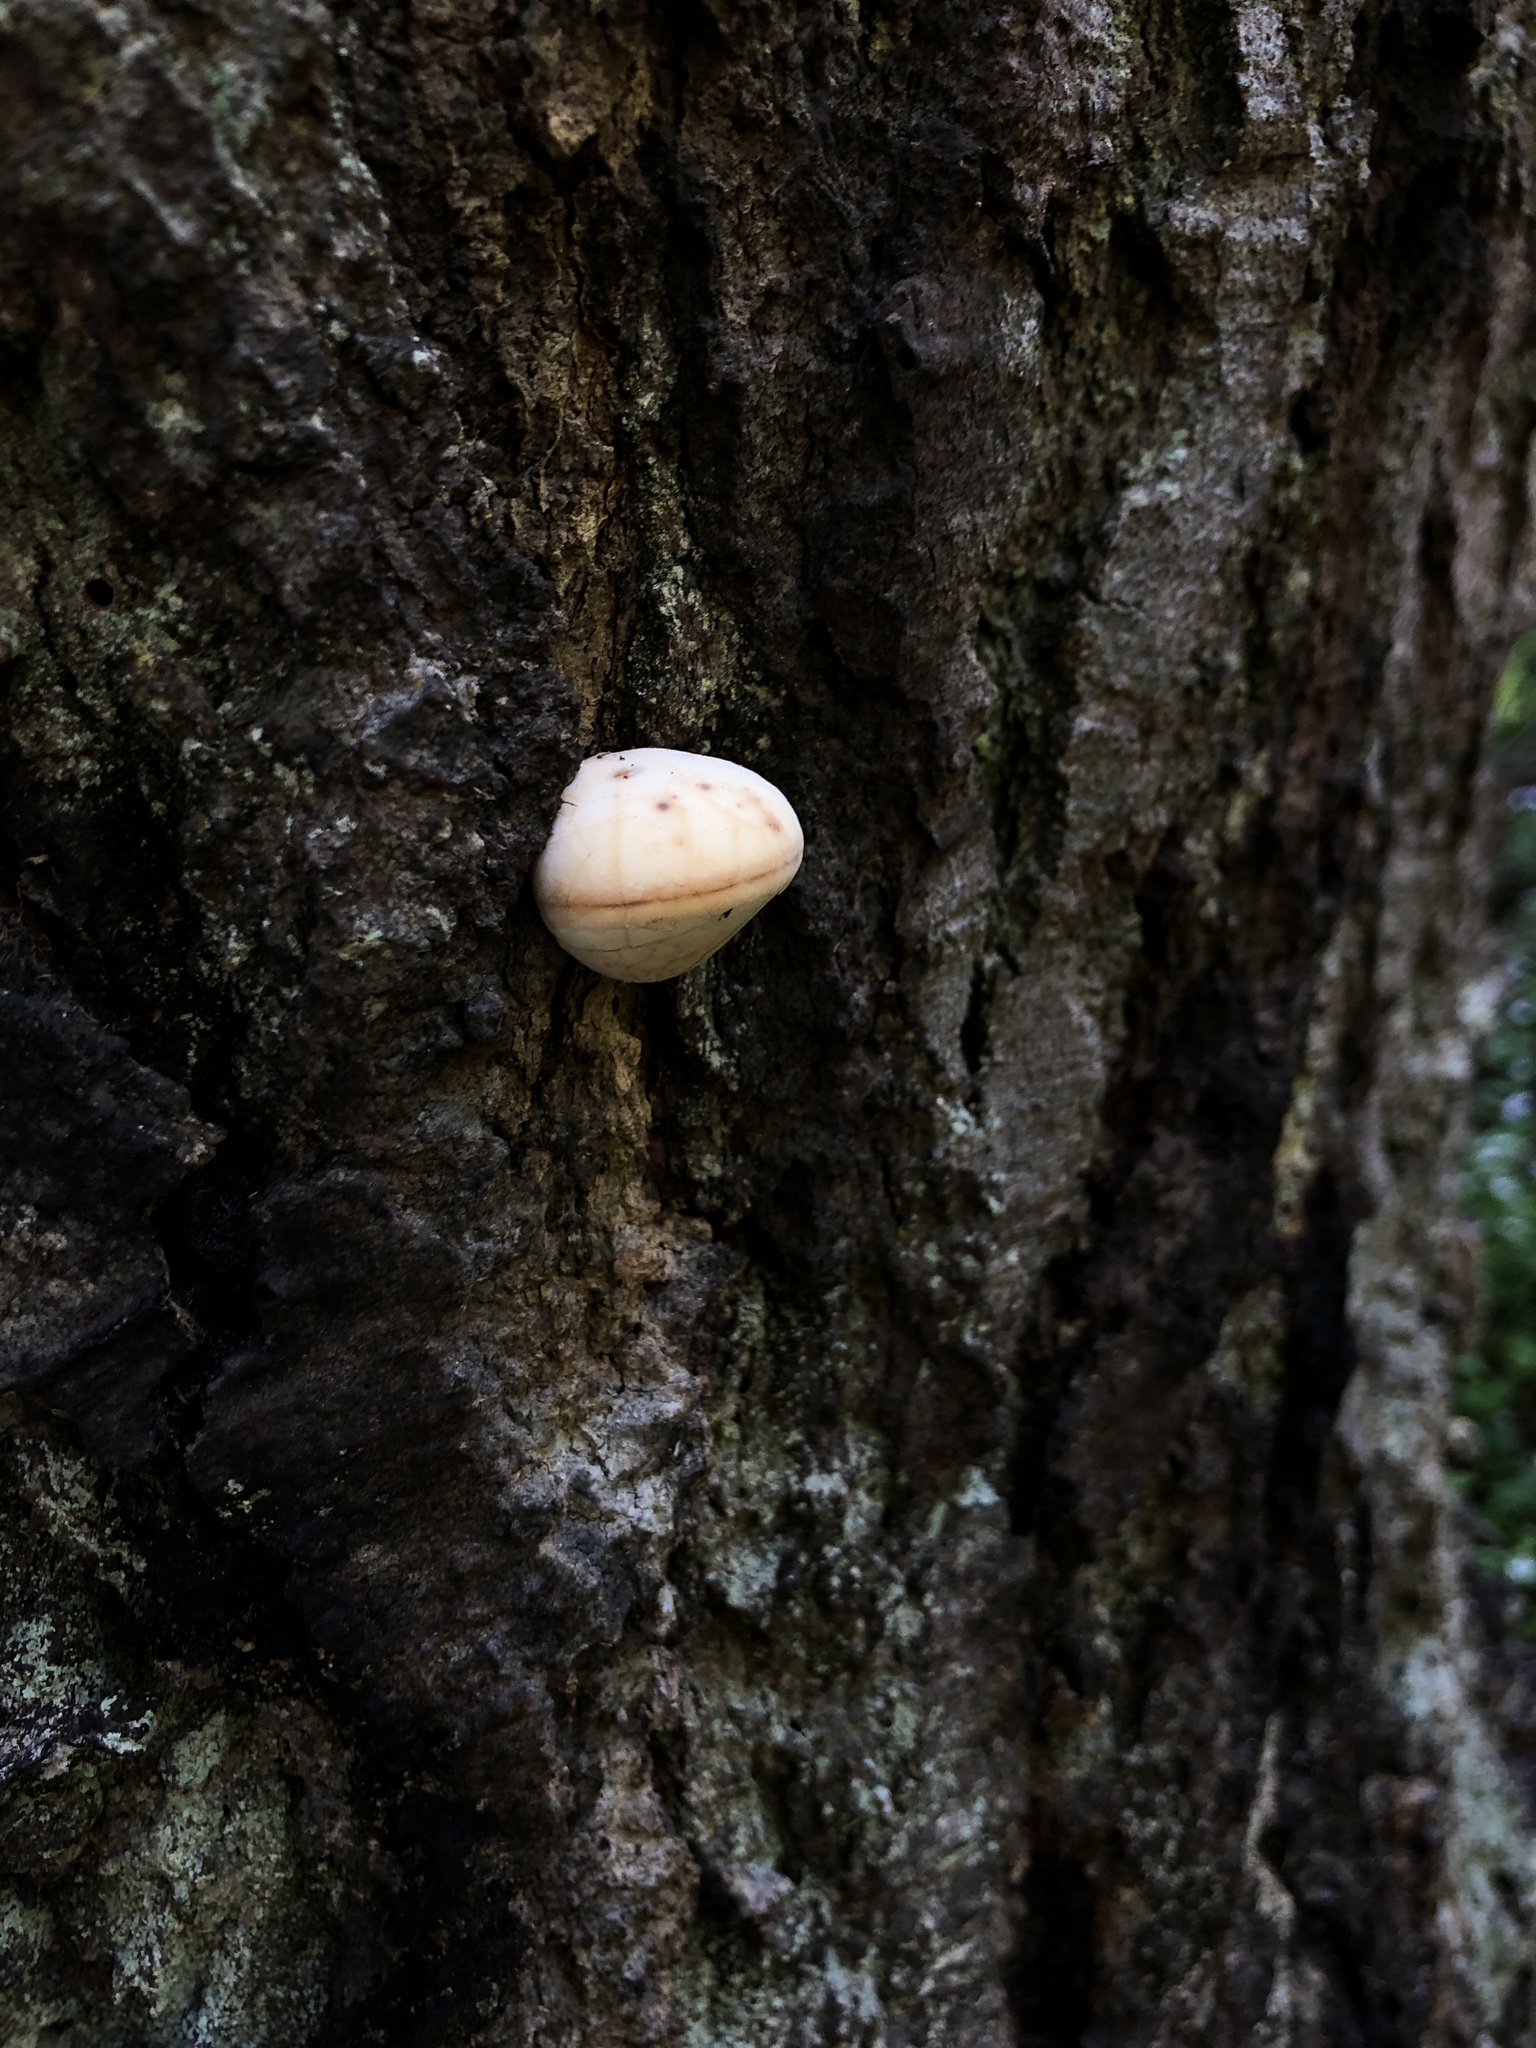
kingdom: Fungi
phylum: Basidiomycota
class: Agaricomycetes
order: Polyporales
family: Polyporaceae
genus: Cryptoporus
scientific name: Cryptoporus volvatus
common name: Veiled polypore
